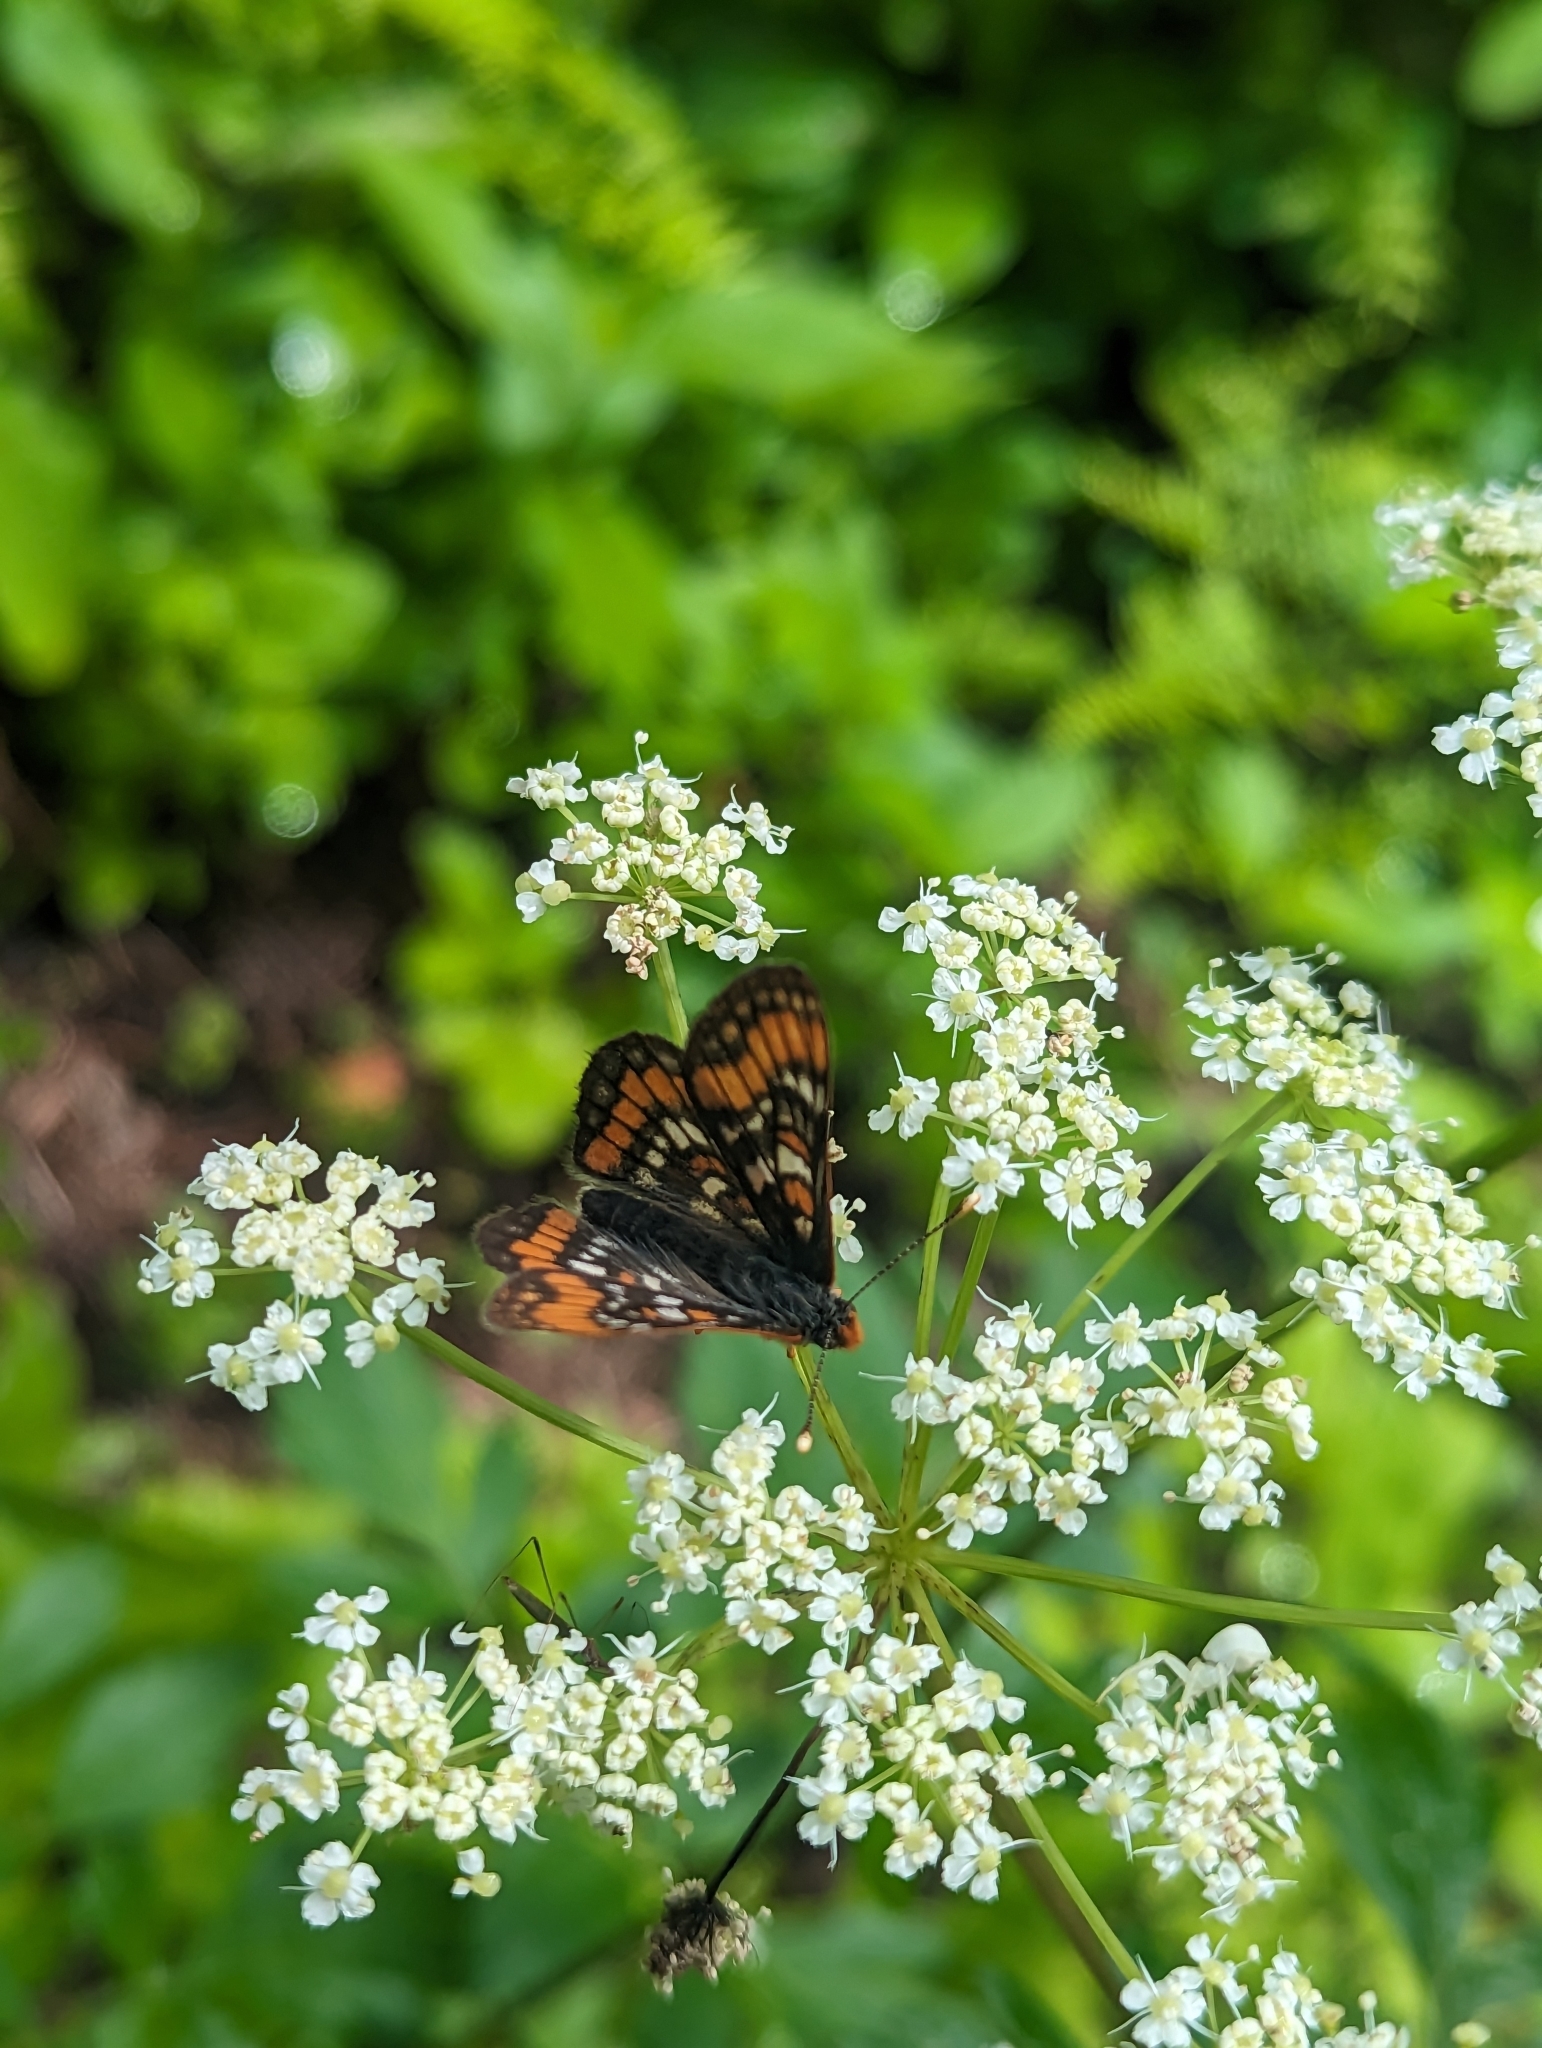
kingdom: Animalia
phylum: Arthropoda
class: Insecta
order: Lepidoptera
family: Nymphalidae
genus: Hypodryas
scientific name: Hypodryas gillettii
